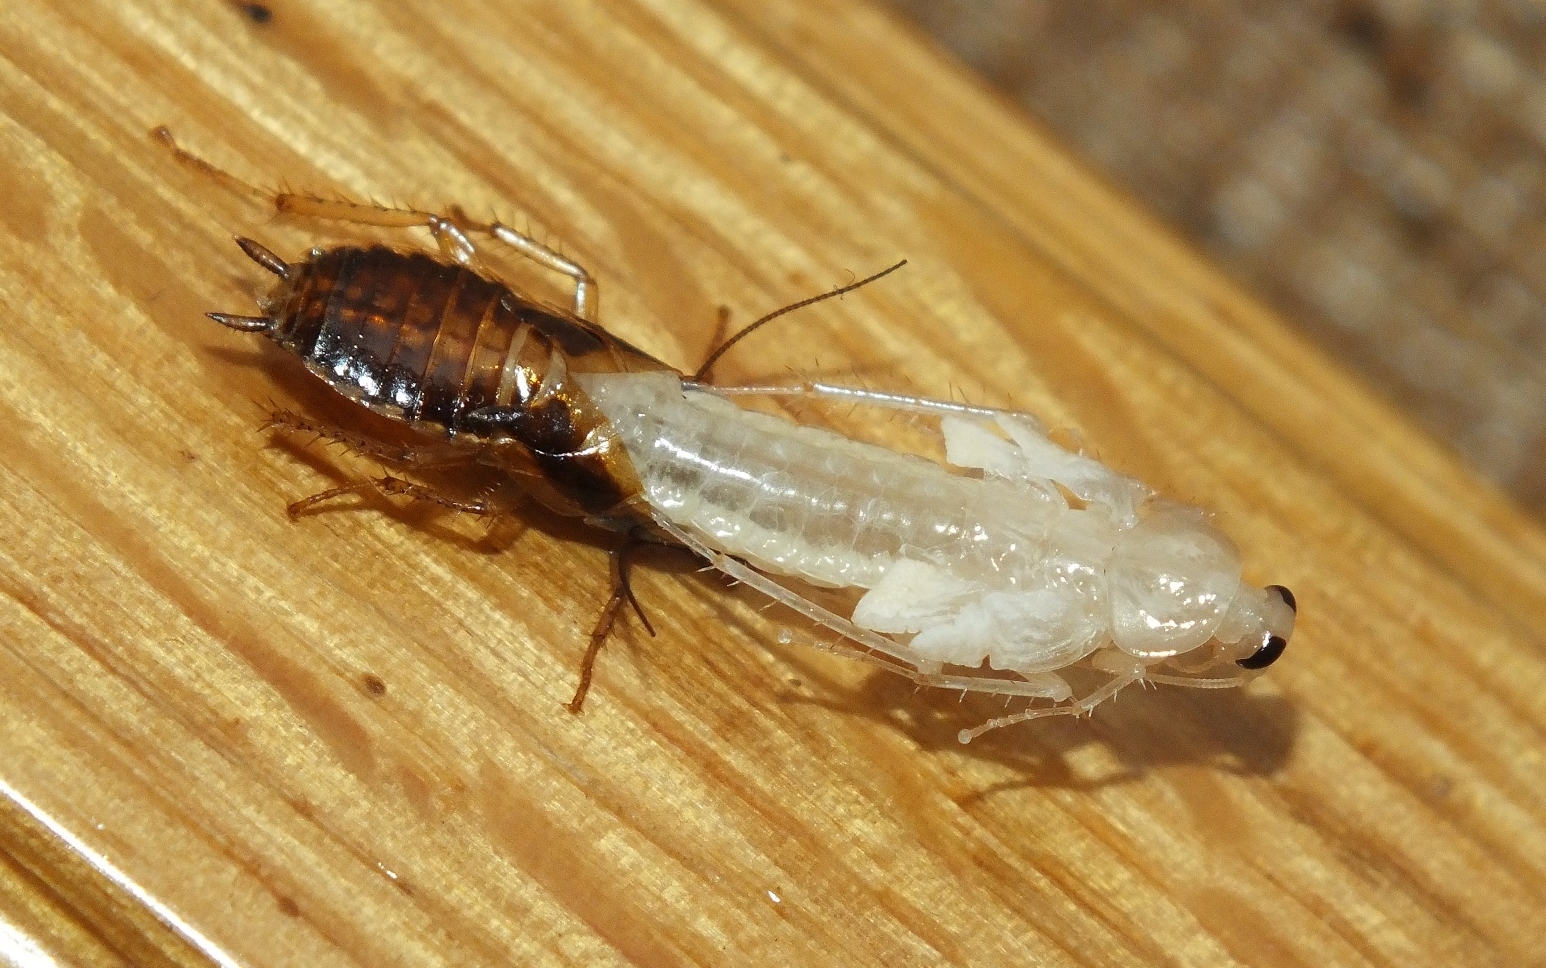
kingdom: Animalia
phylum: Arthropoda
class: Insecta
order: Blattodea
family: Ectobiidae
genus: Blattella
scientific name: Blattella germanica
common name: German cockroach
